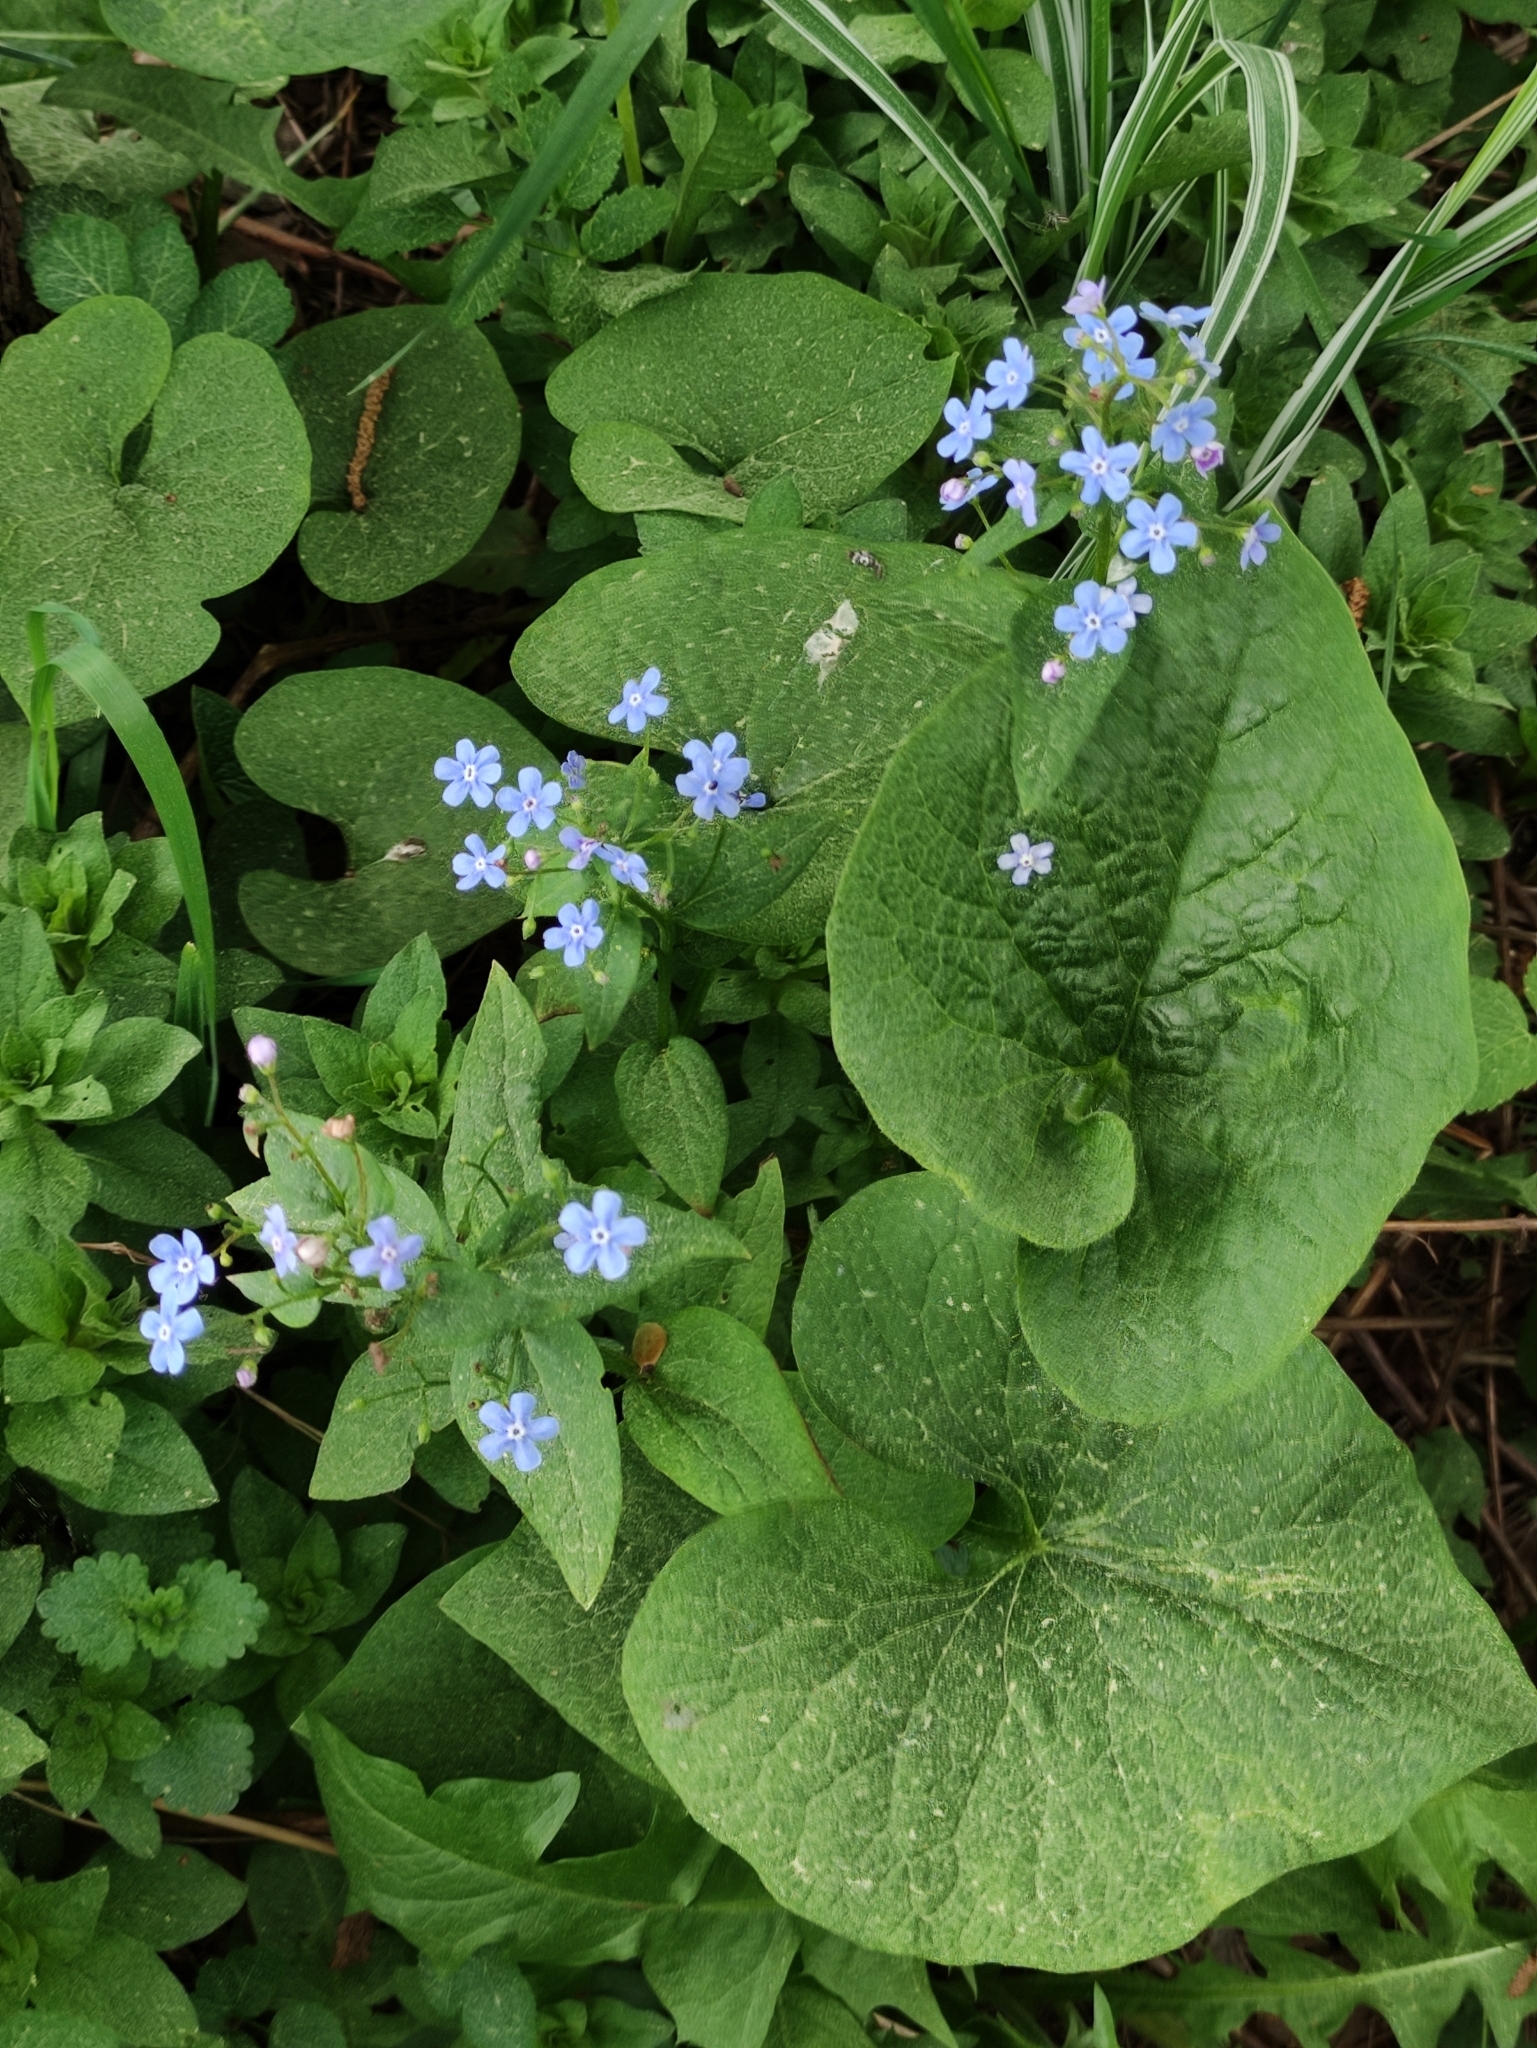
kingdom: Plantae
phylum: Tracheophyta
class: Magnoliopsida
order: Boraginales
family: Boraginaceae
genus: Brunnera
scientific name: Brunnera sibirica
